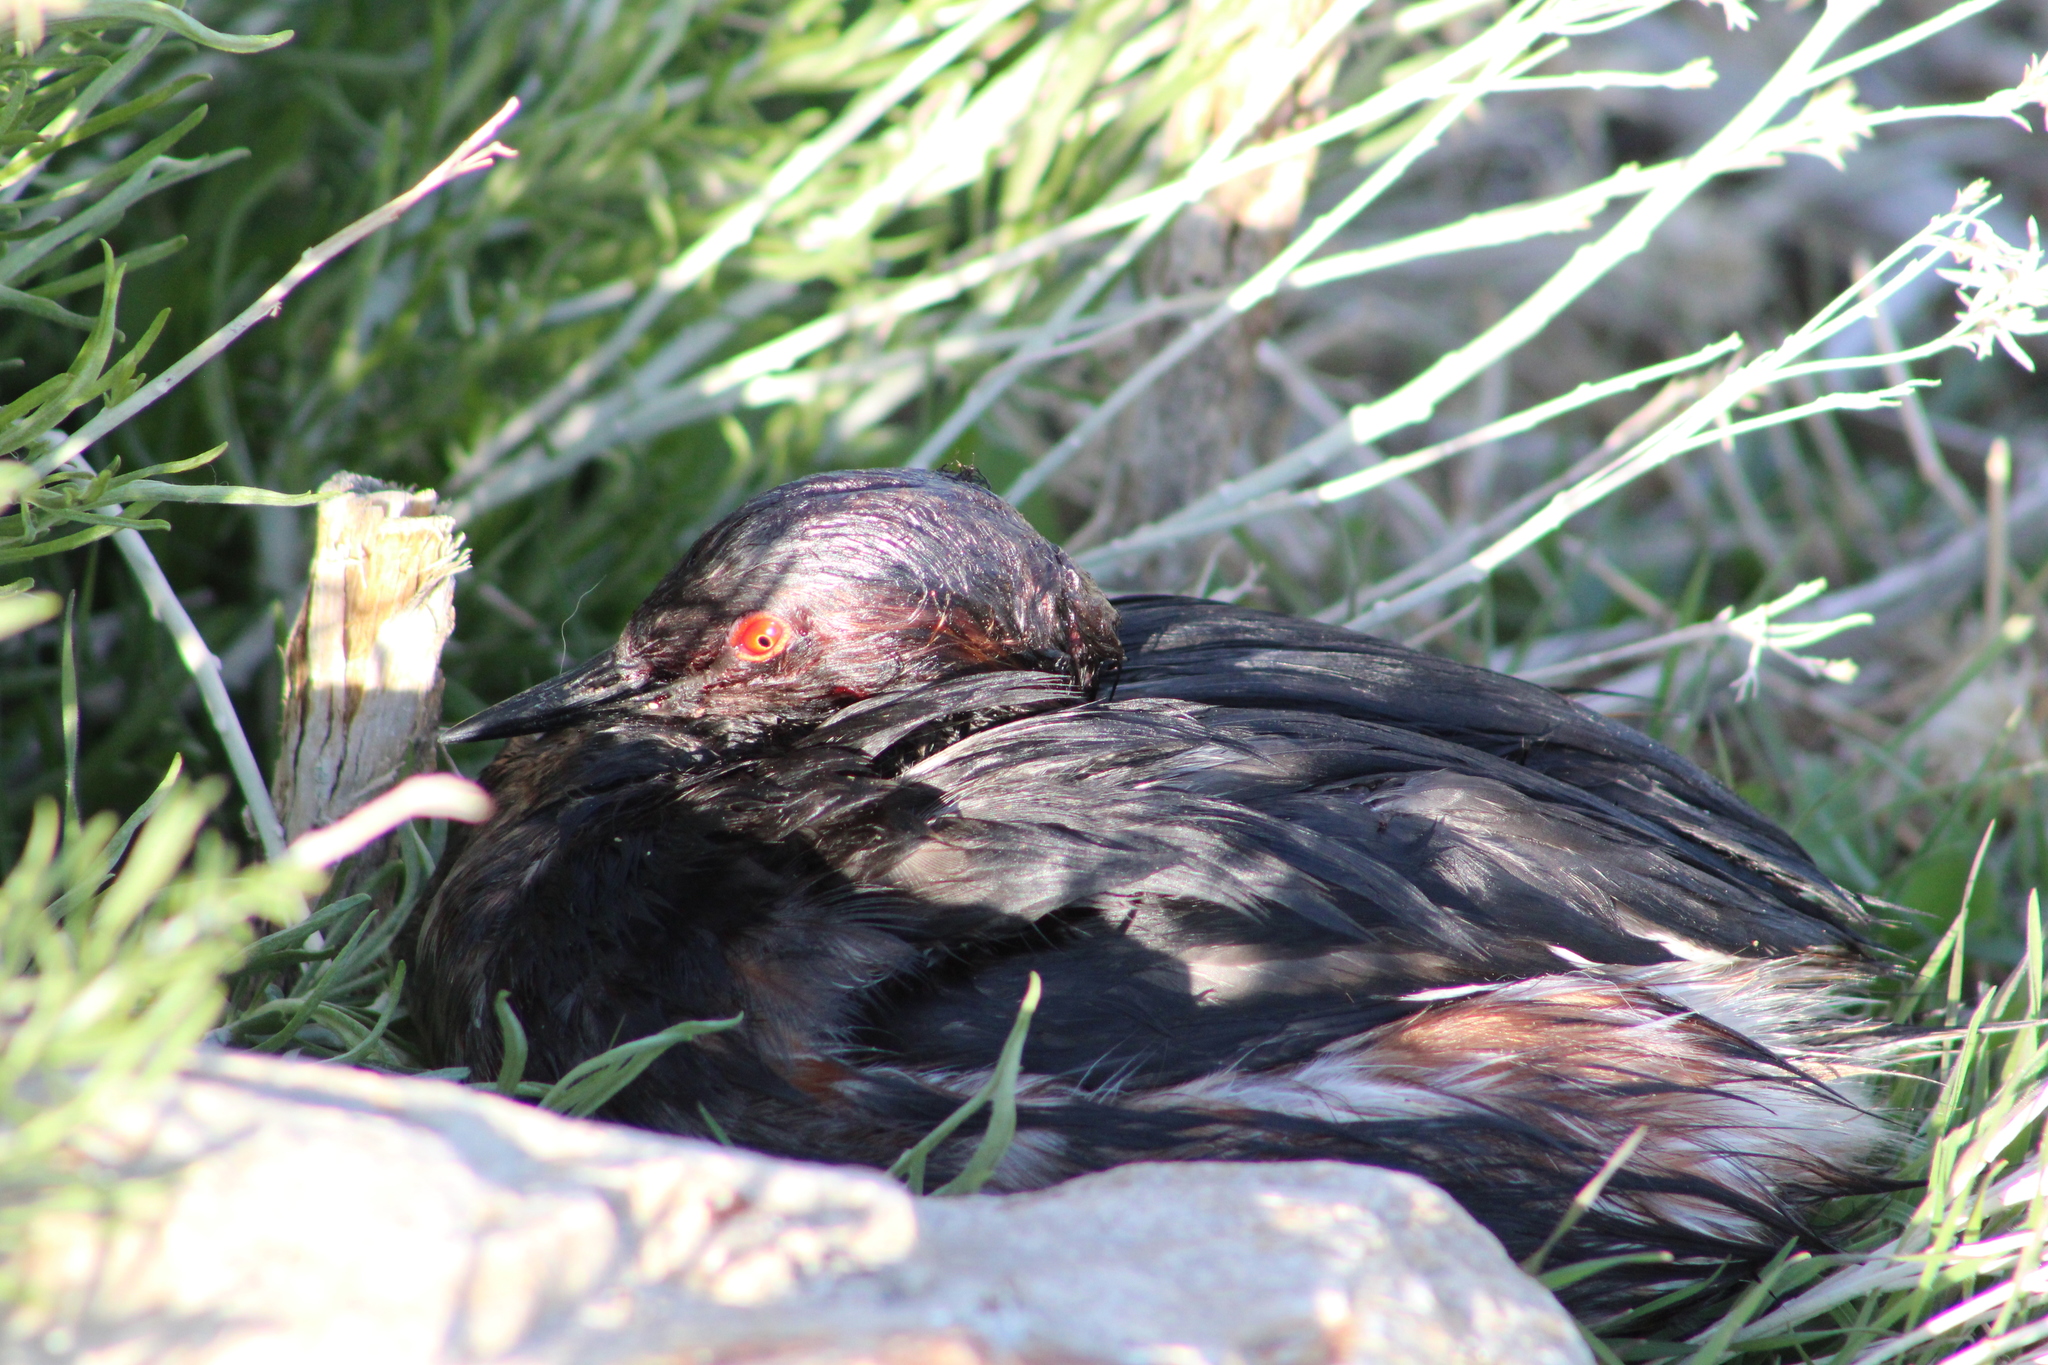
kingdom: Animalia
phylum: Chordata
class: Aves
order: Podicipediformes
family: Podicipedidae
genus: Podiceps
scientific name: Podiceps nigricollis
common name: Black-necked grebe
